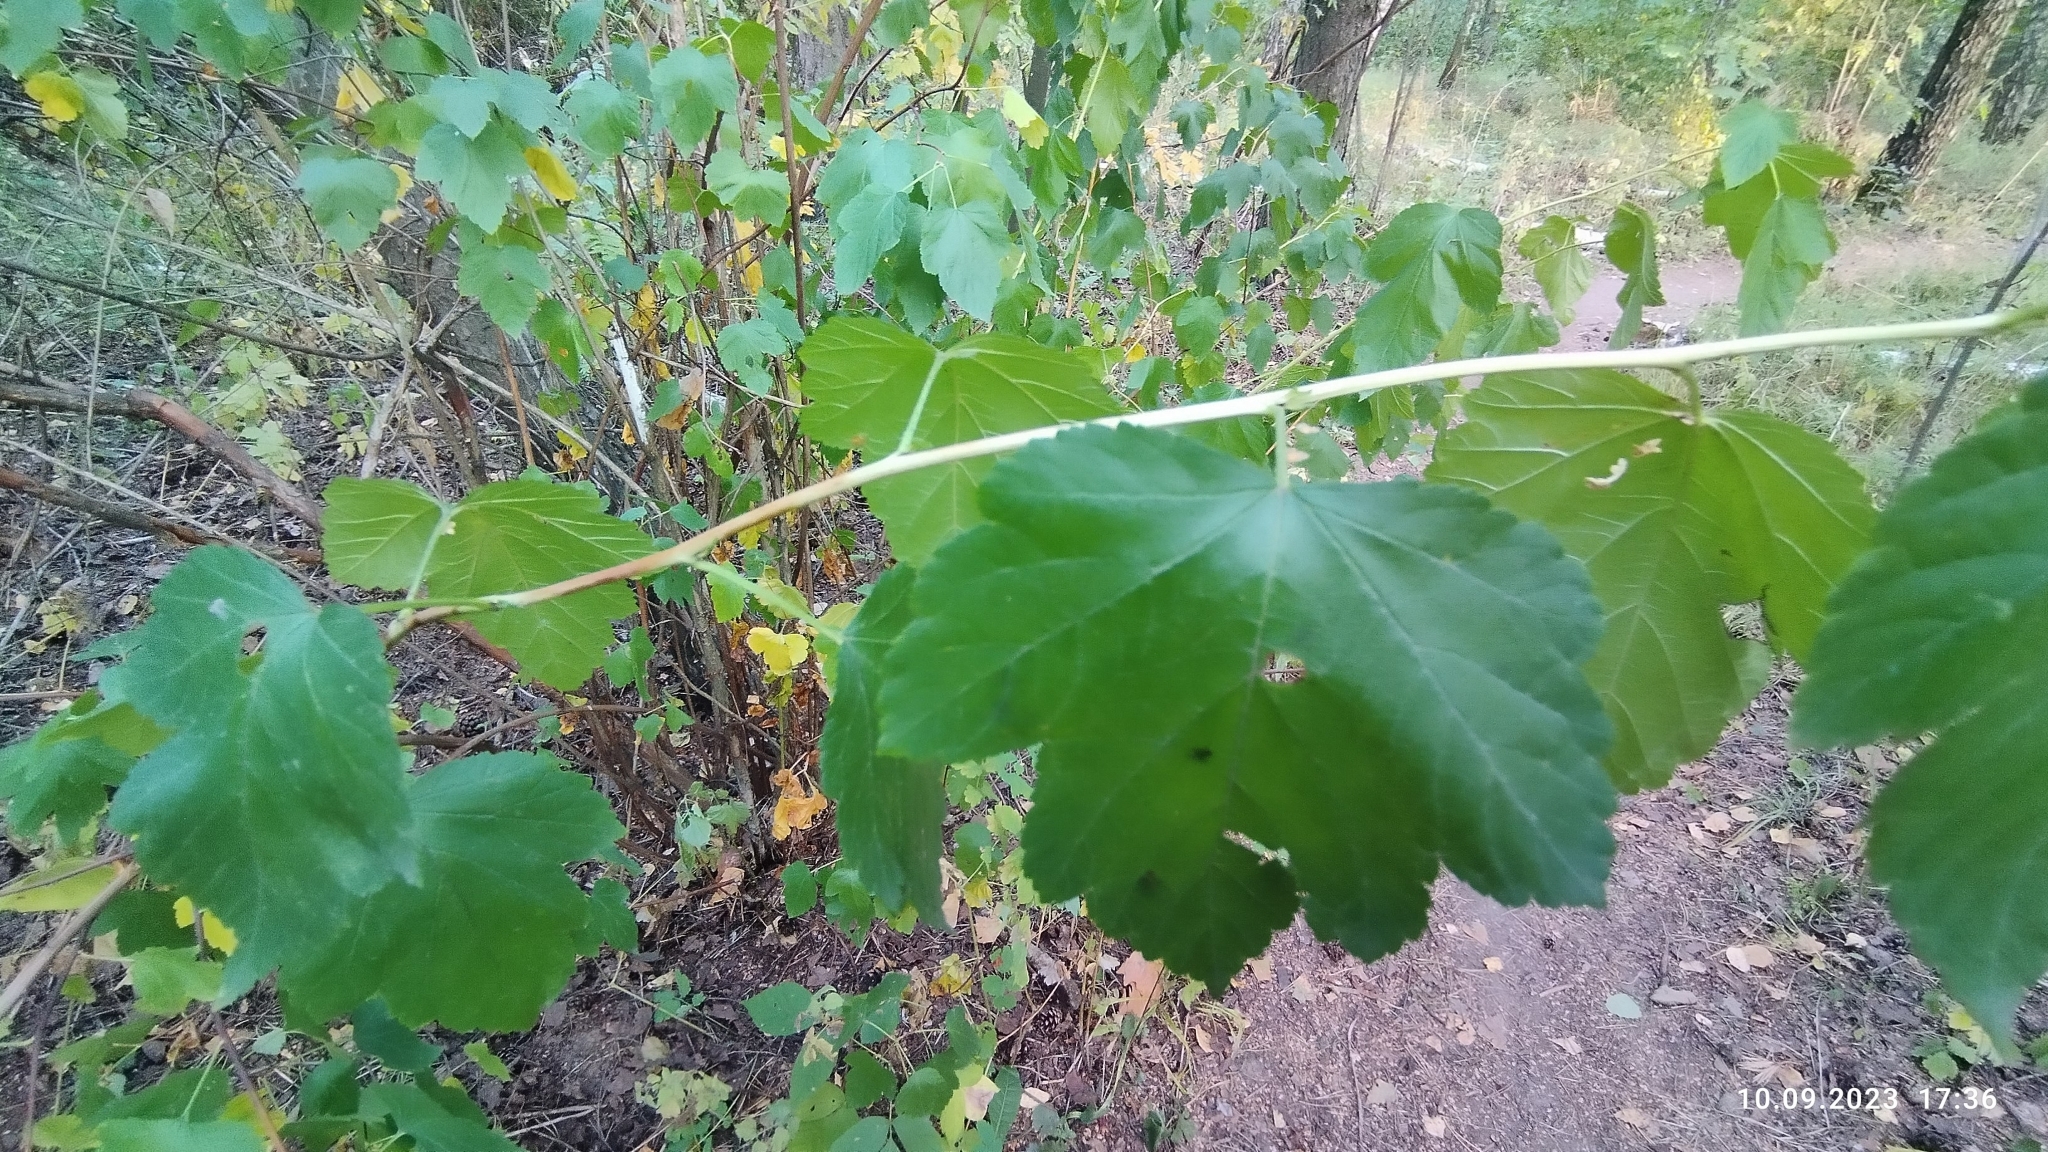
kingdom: Plantae
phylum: Tracheophyta
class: Magnoliopsida
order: Rosales
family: Rosaceae
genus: Physocarpus
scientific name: Physocarpus opulifolius
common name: Ninebark
